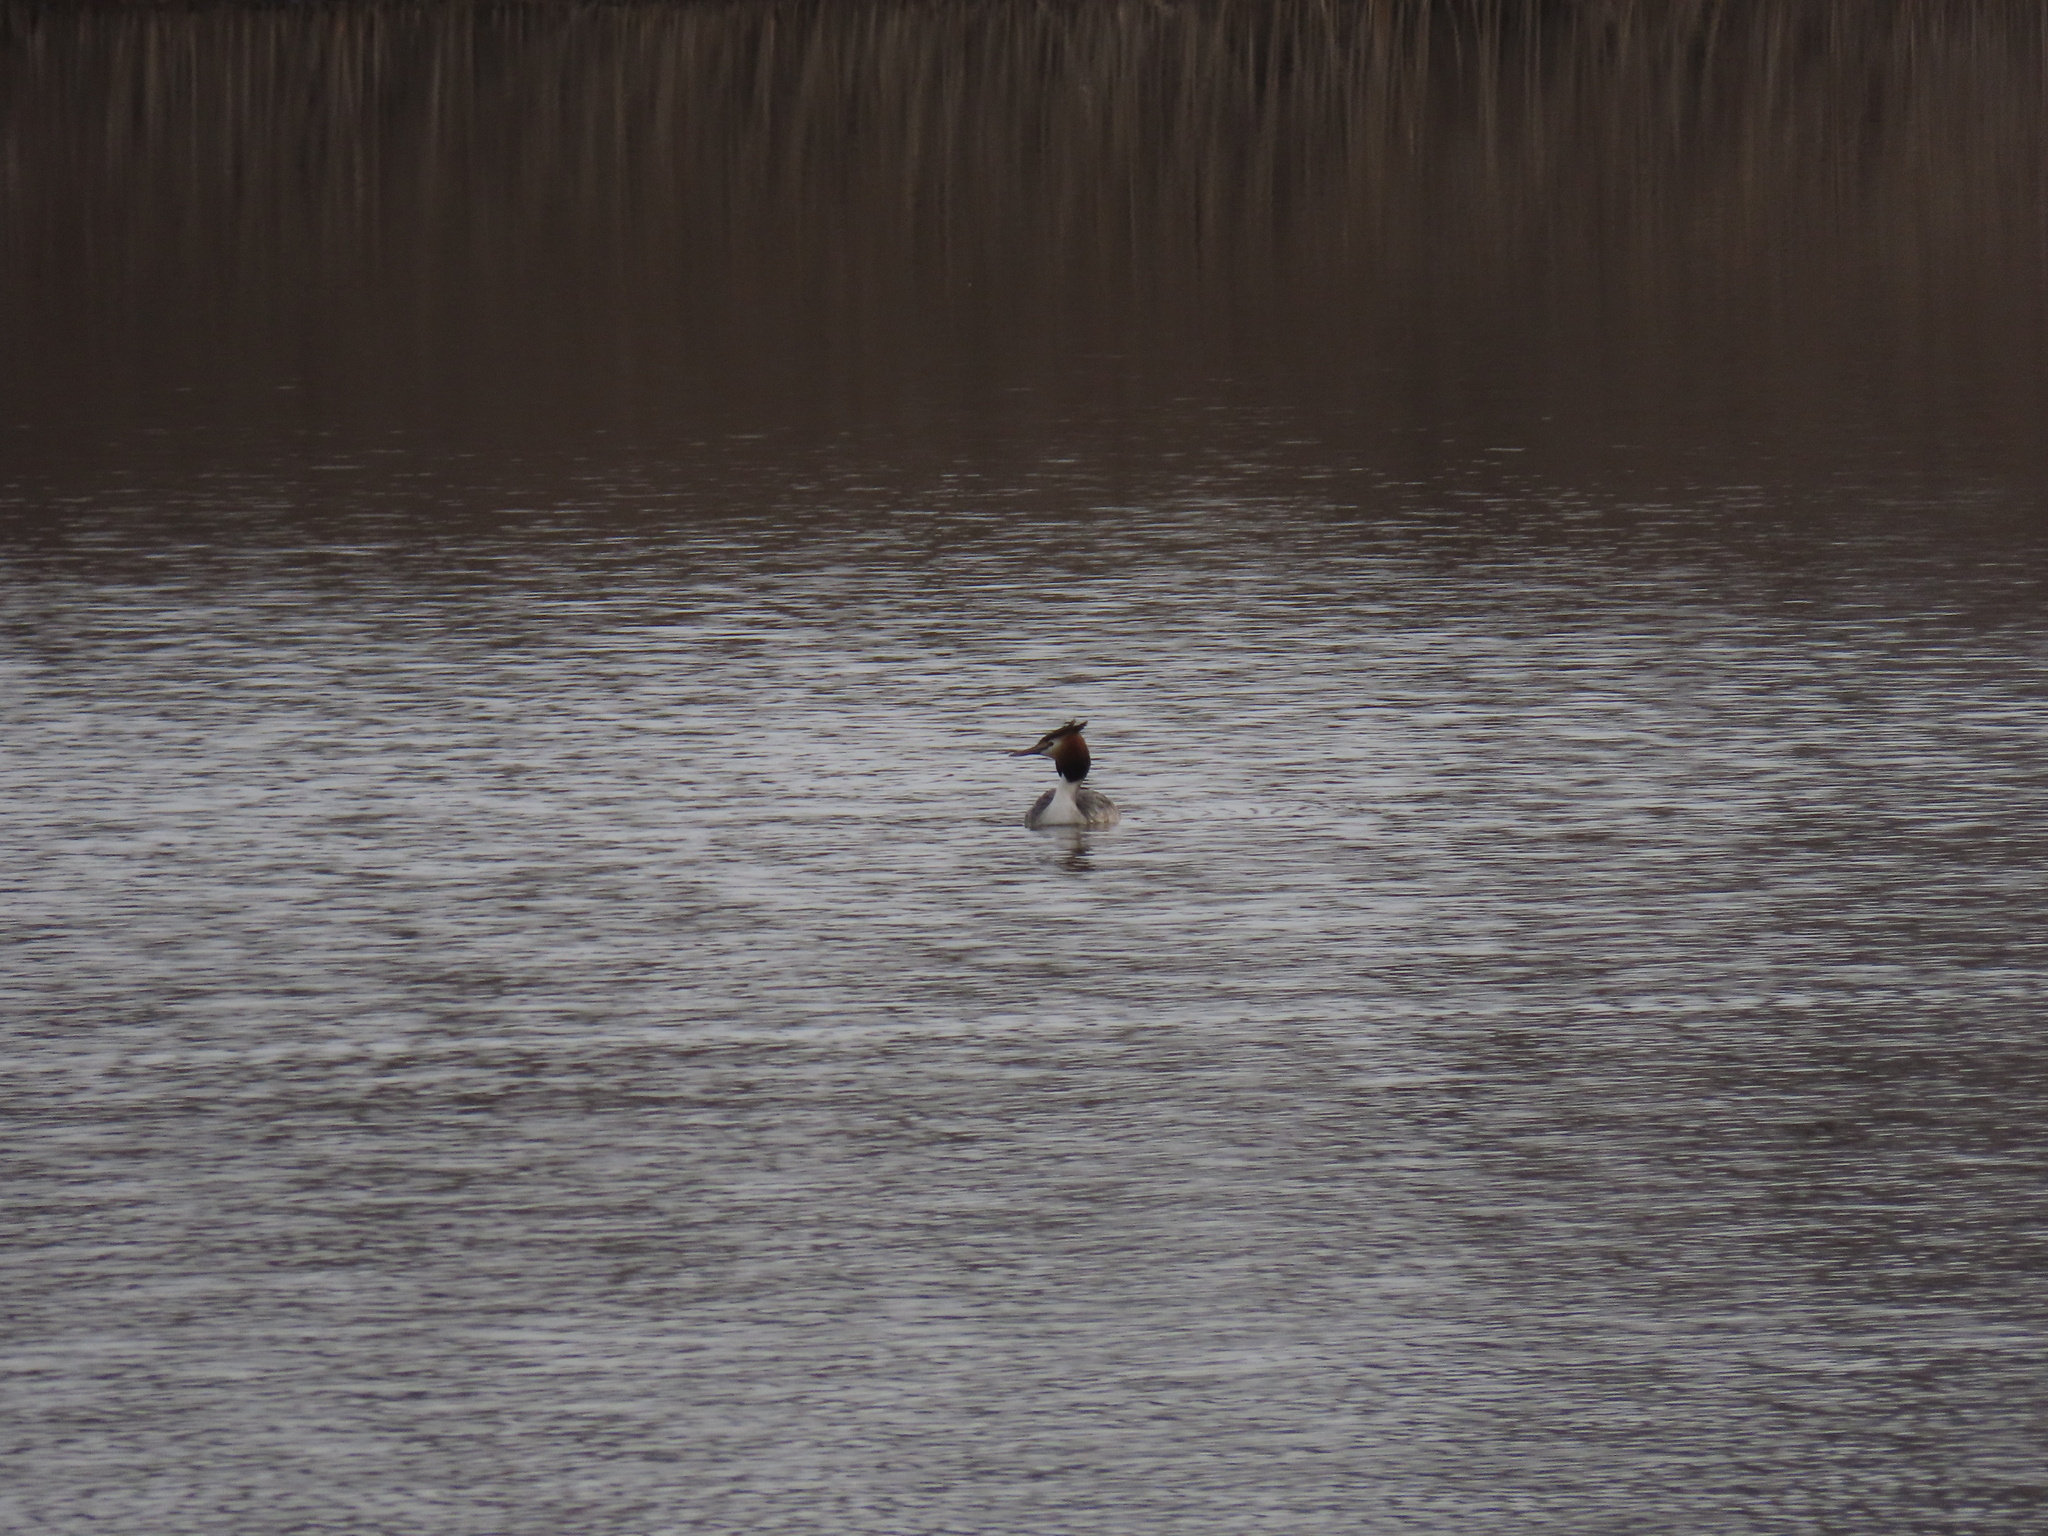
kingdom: Animalia
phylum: Chordata
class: Aves
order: Podicipediformes
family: Podicipedidae
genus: Podiceps
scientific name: Podiceps cristatus
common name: Great crested grebe
